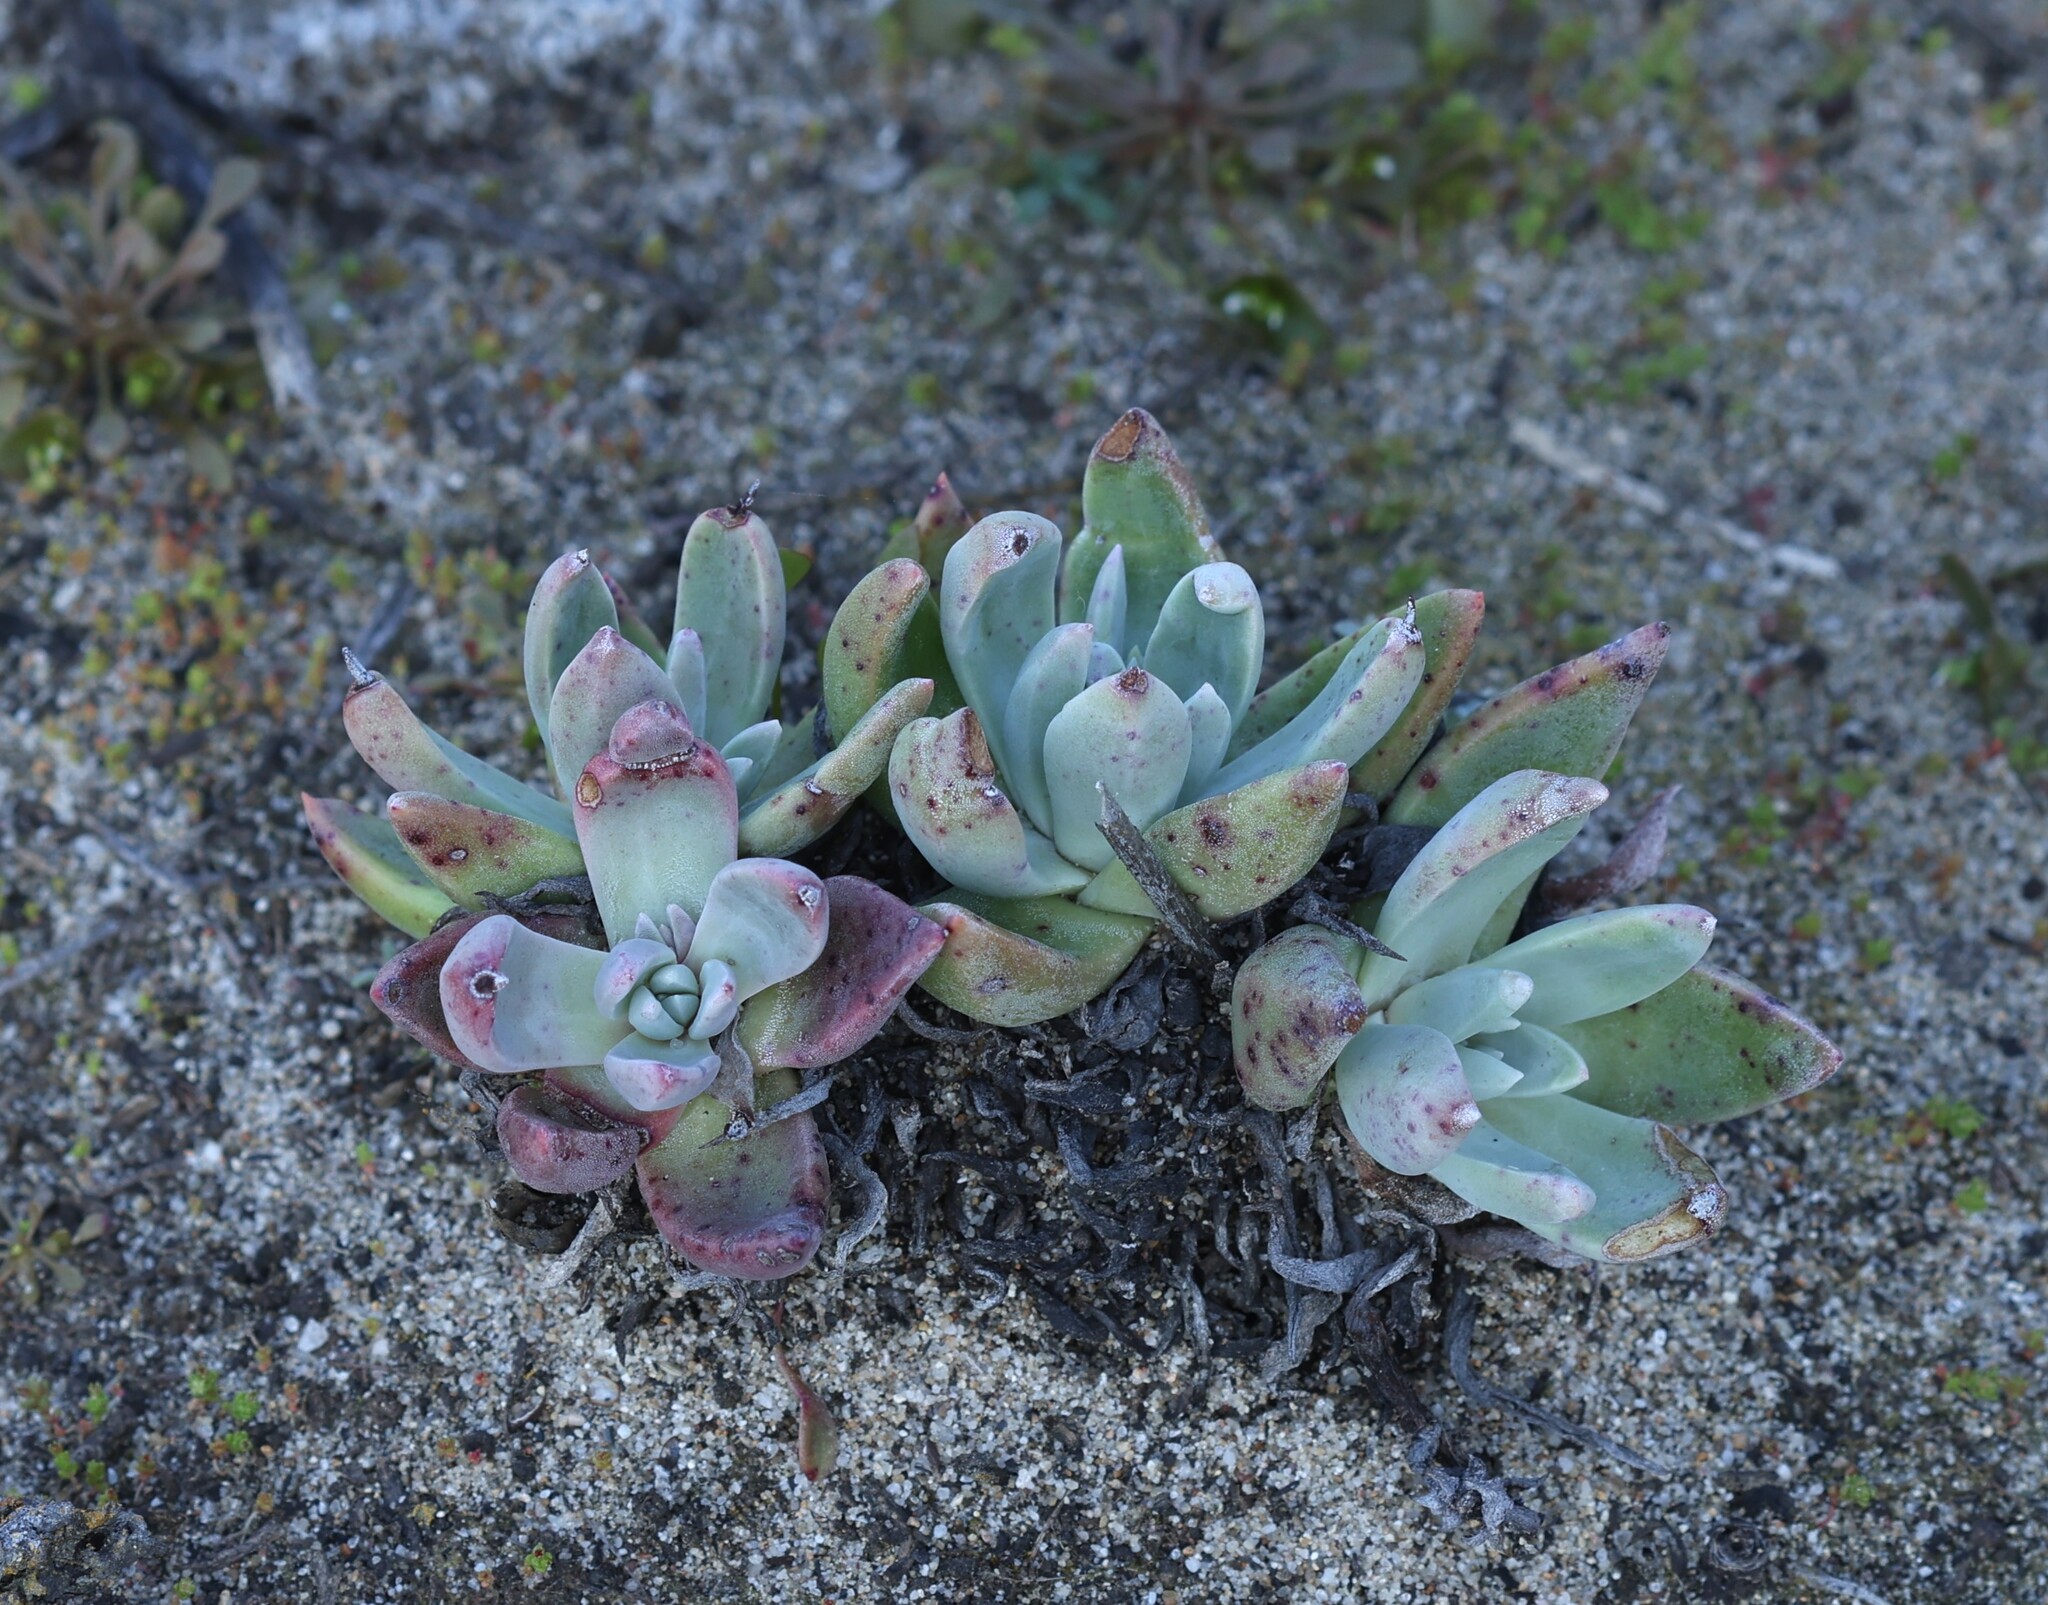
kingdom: Plantae
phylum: Tracheophyta
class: Magnoliopsida
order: Saxifragales
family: Crassulaceae
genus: Dudleya
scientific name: Dudleya caespitosa
